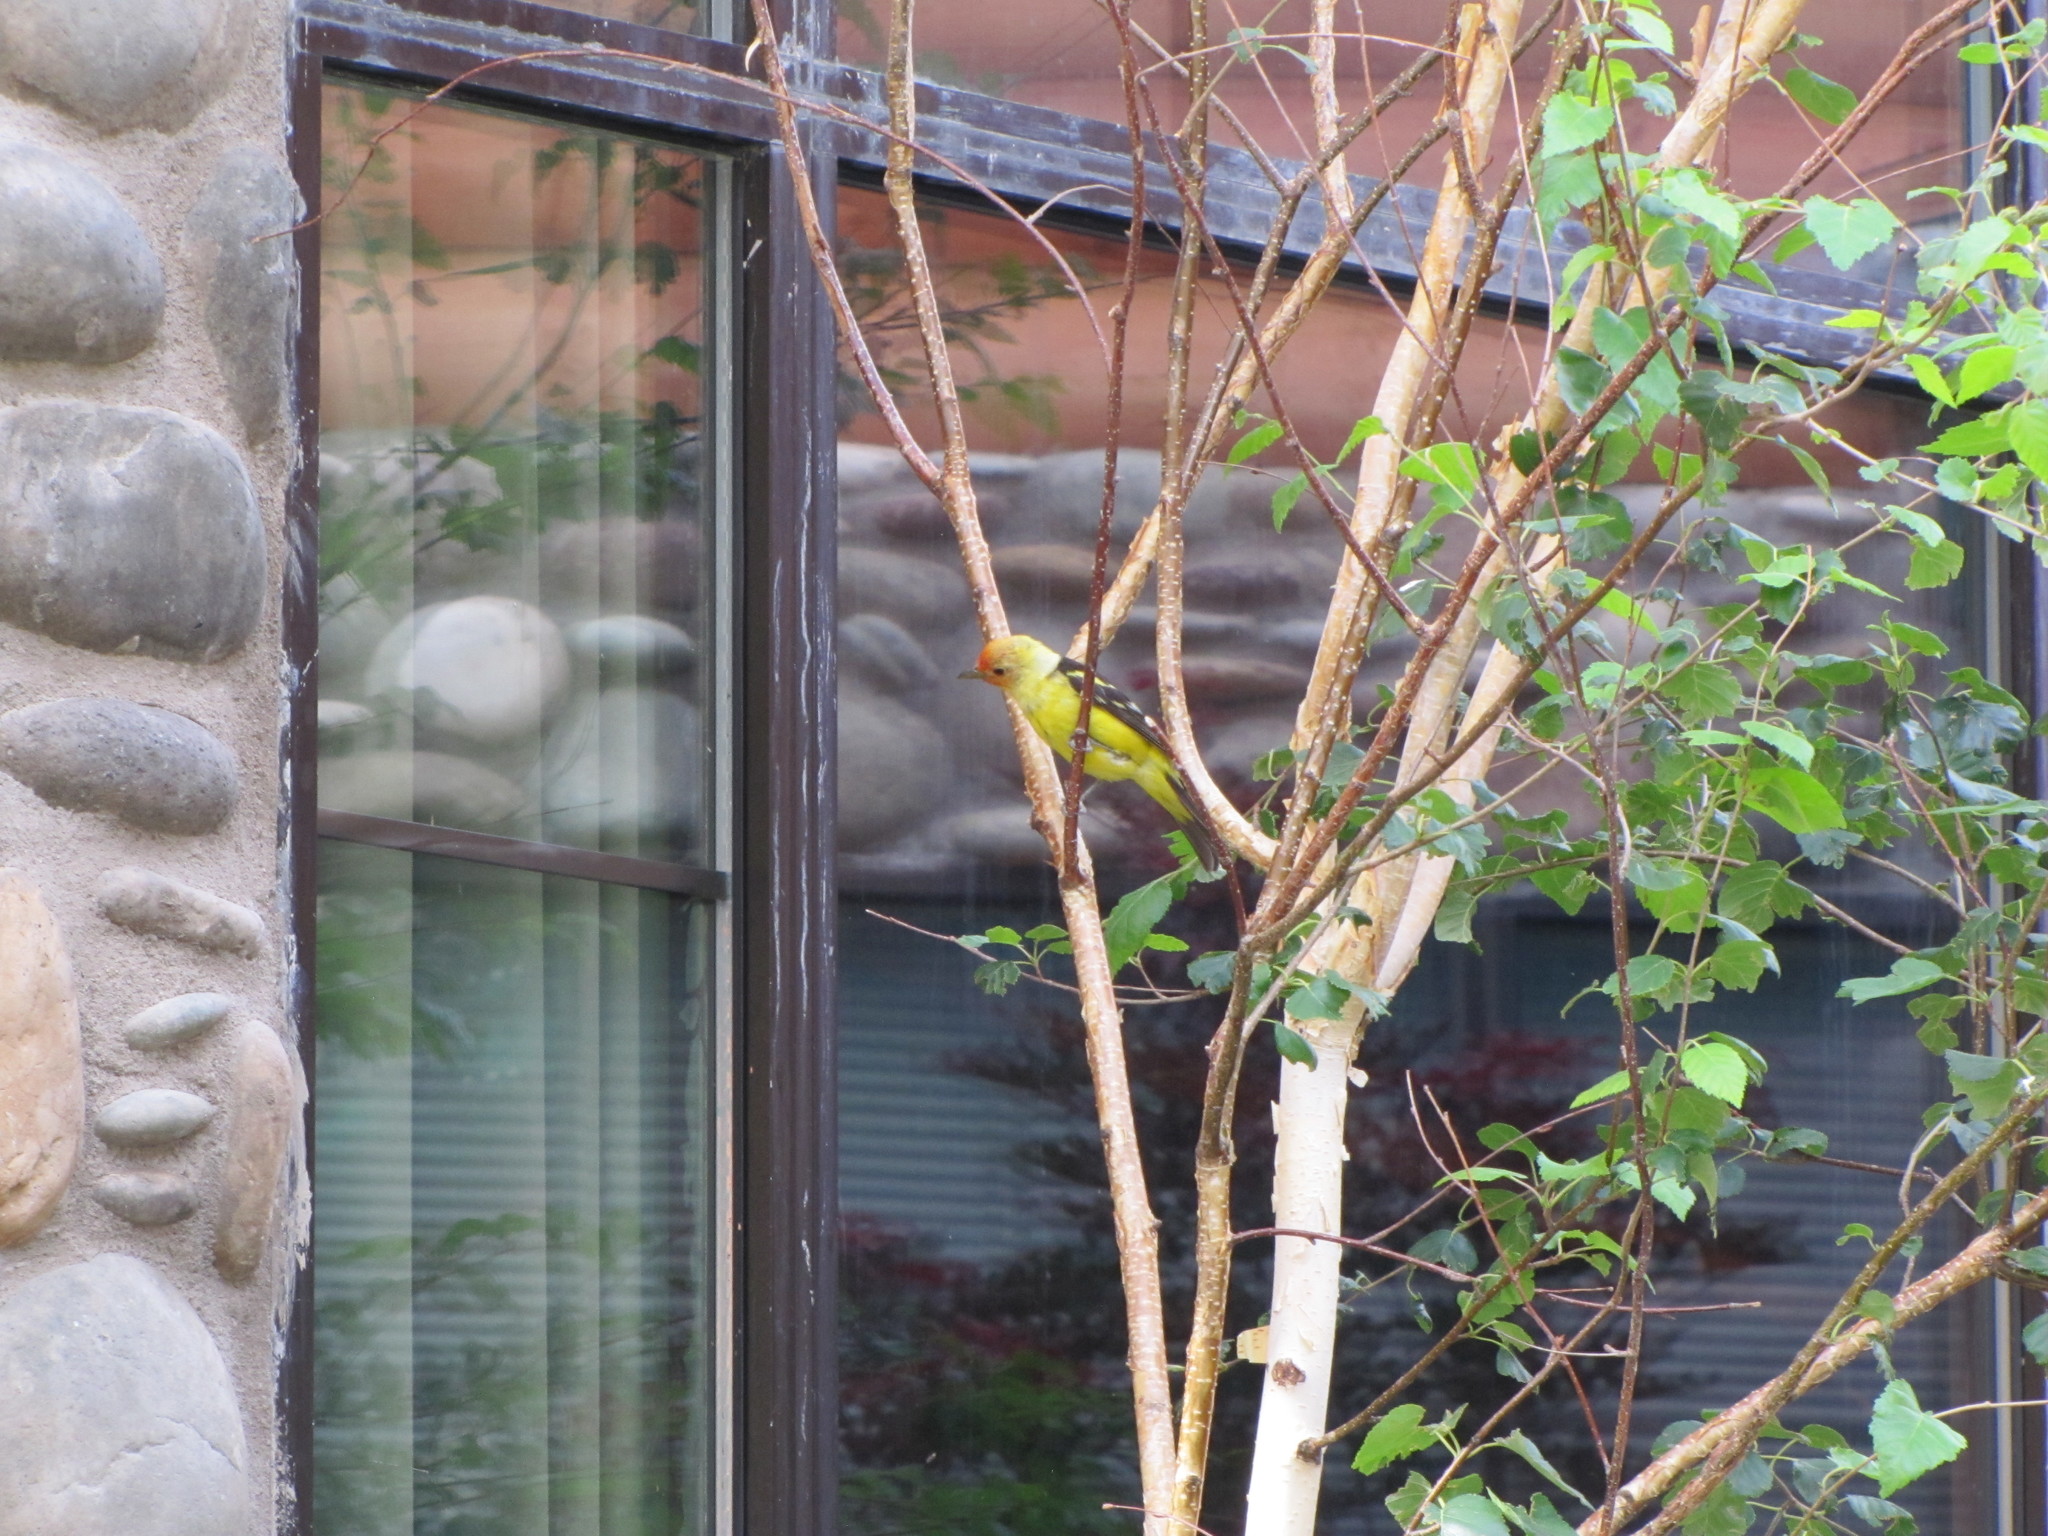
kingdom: Animalia
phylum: Chordata
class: Aves
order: Passeriformes
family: Cardinalidae
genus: Piranga
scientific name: Piranga ludoviciana
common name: Western tanager
